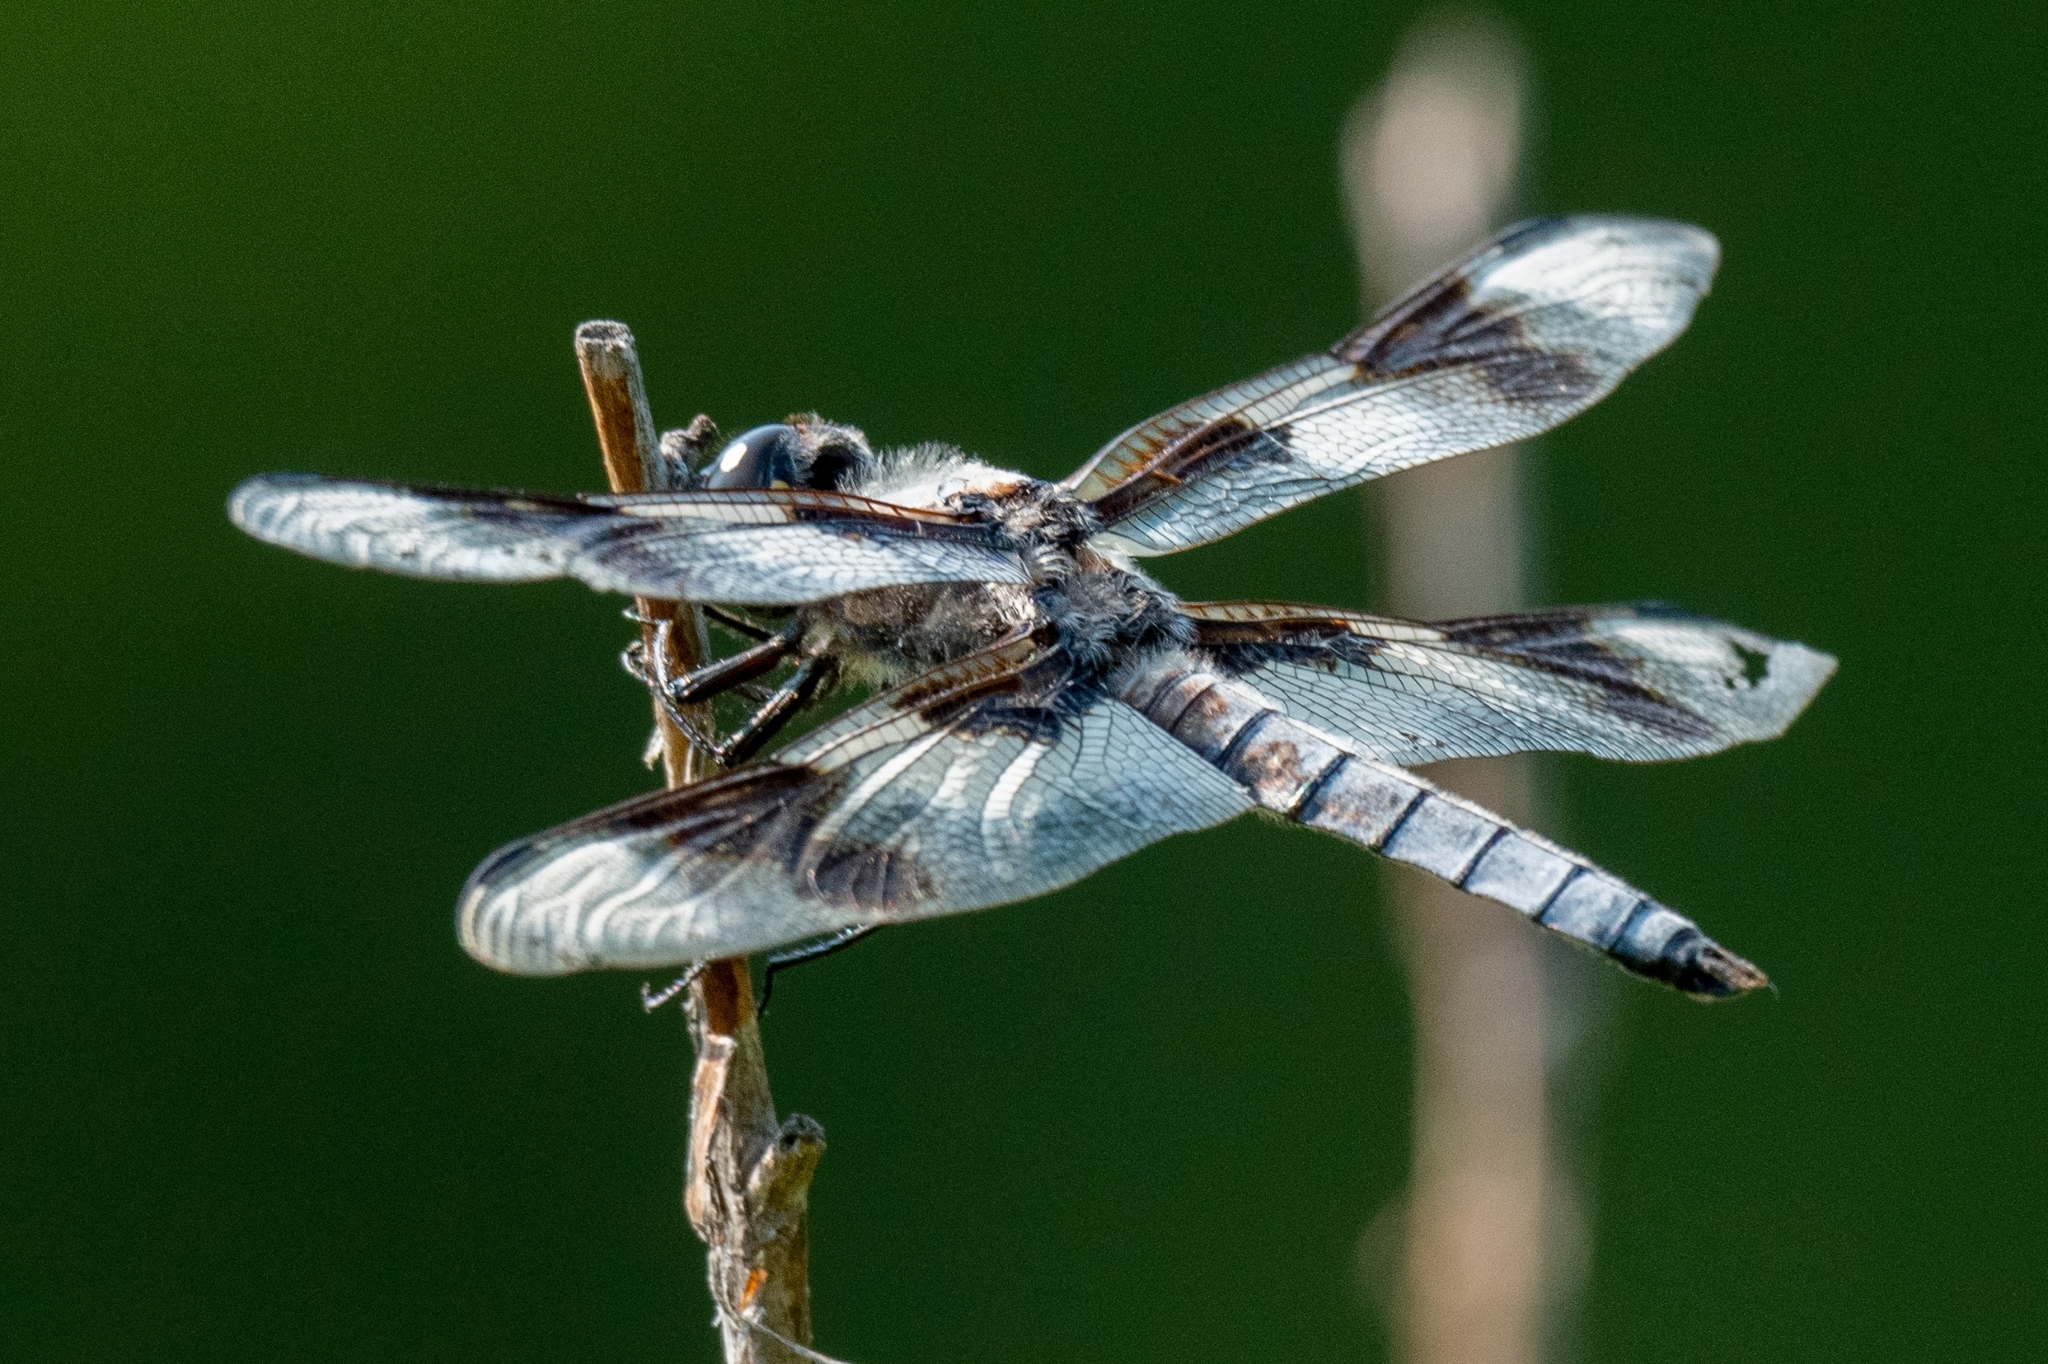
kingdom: Animalia
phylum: Arthropoda
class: Insecta
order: Odonata
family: Libellulidae
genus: Libellula
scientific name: Libellula forensis
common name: Eight-spotted skimmer
